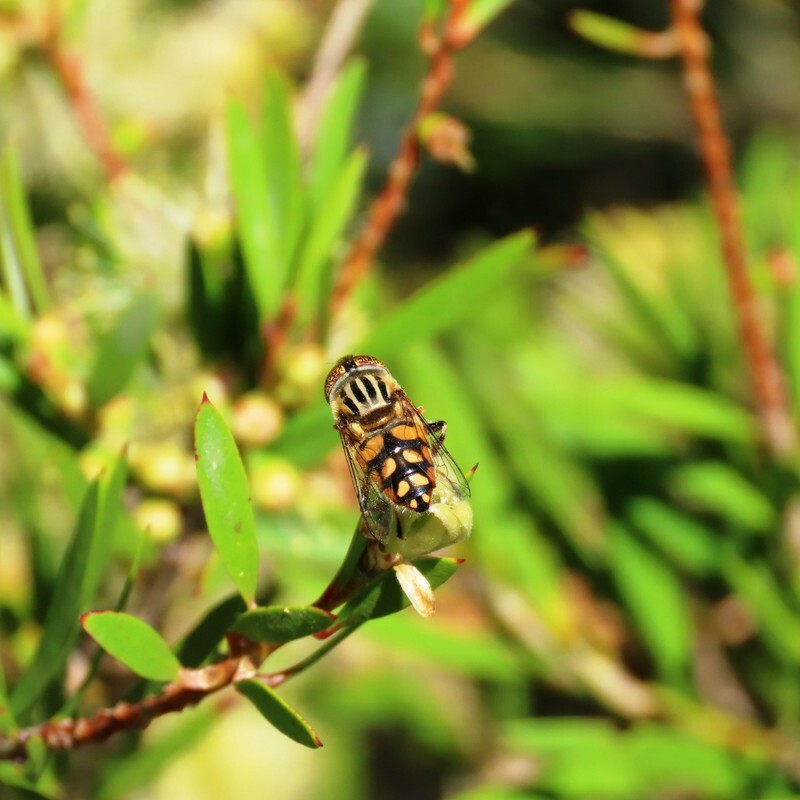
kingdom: Animalia
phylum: Arthropoda
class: Insecta
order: Diptera
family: Syrphidae
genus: Eristalinus
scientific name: Eristalinus punctulatus
